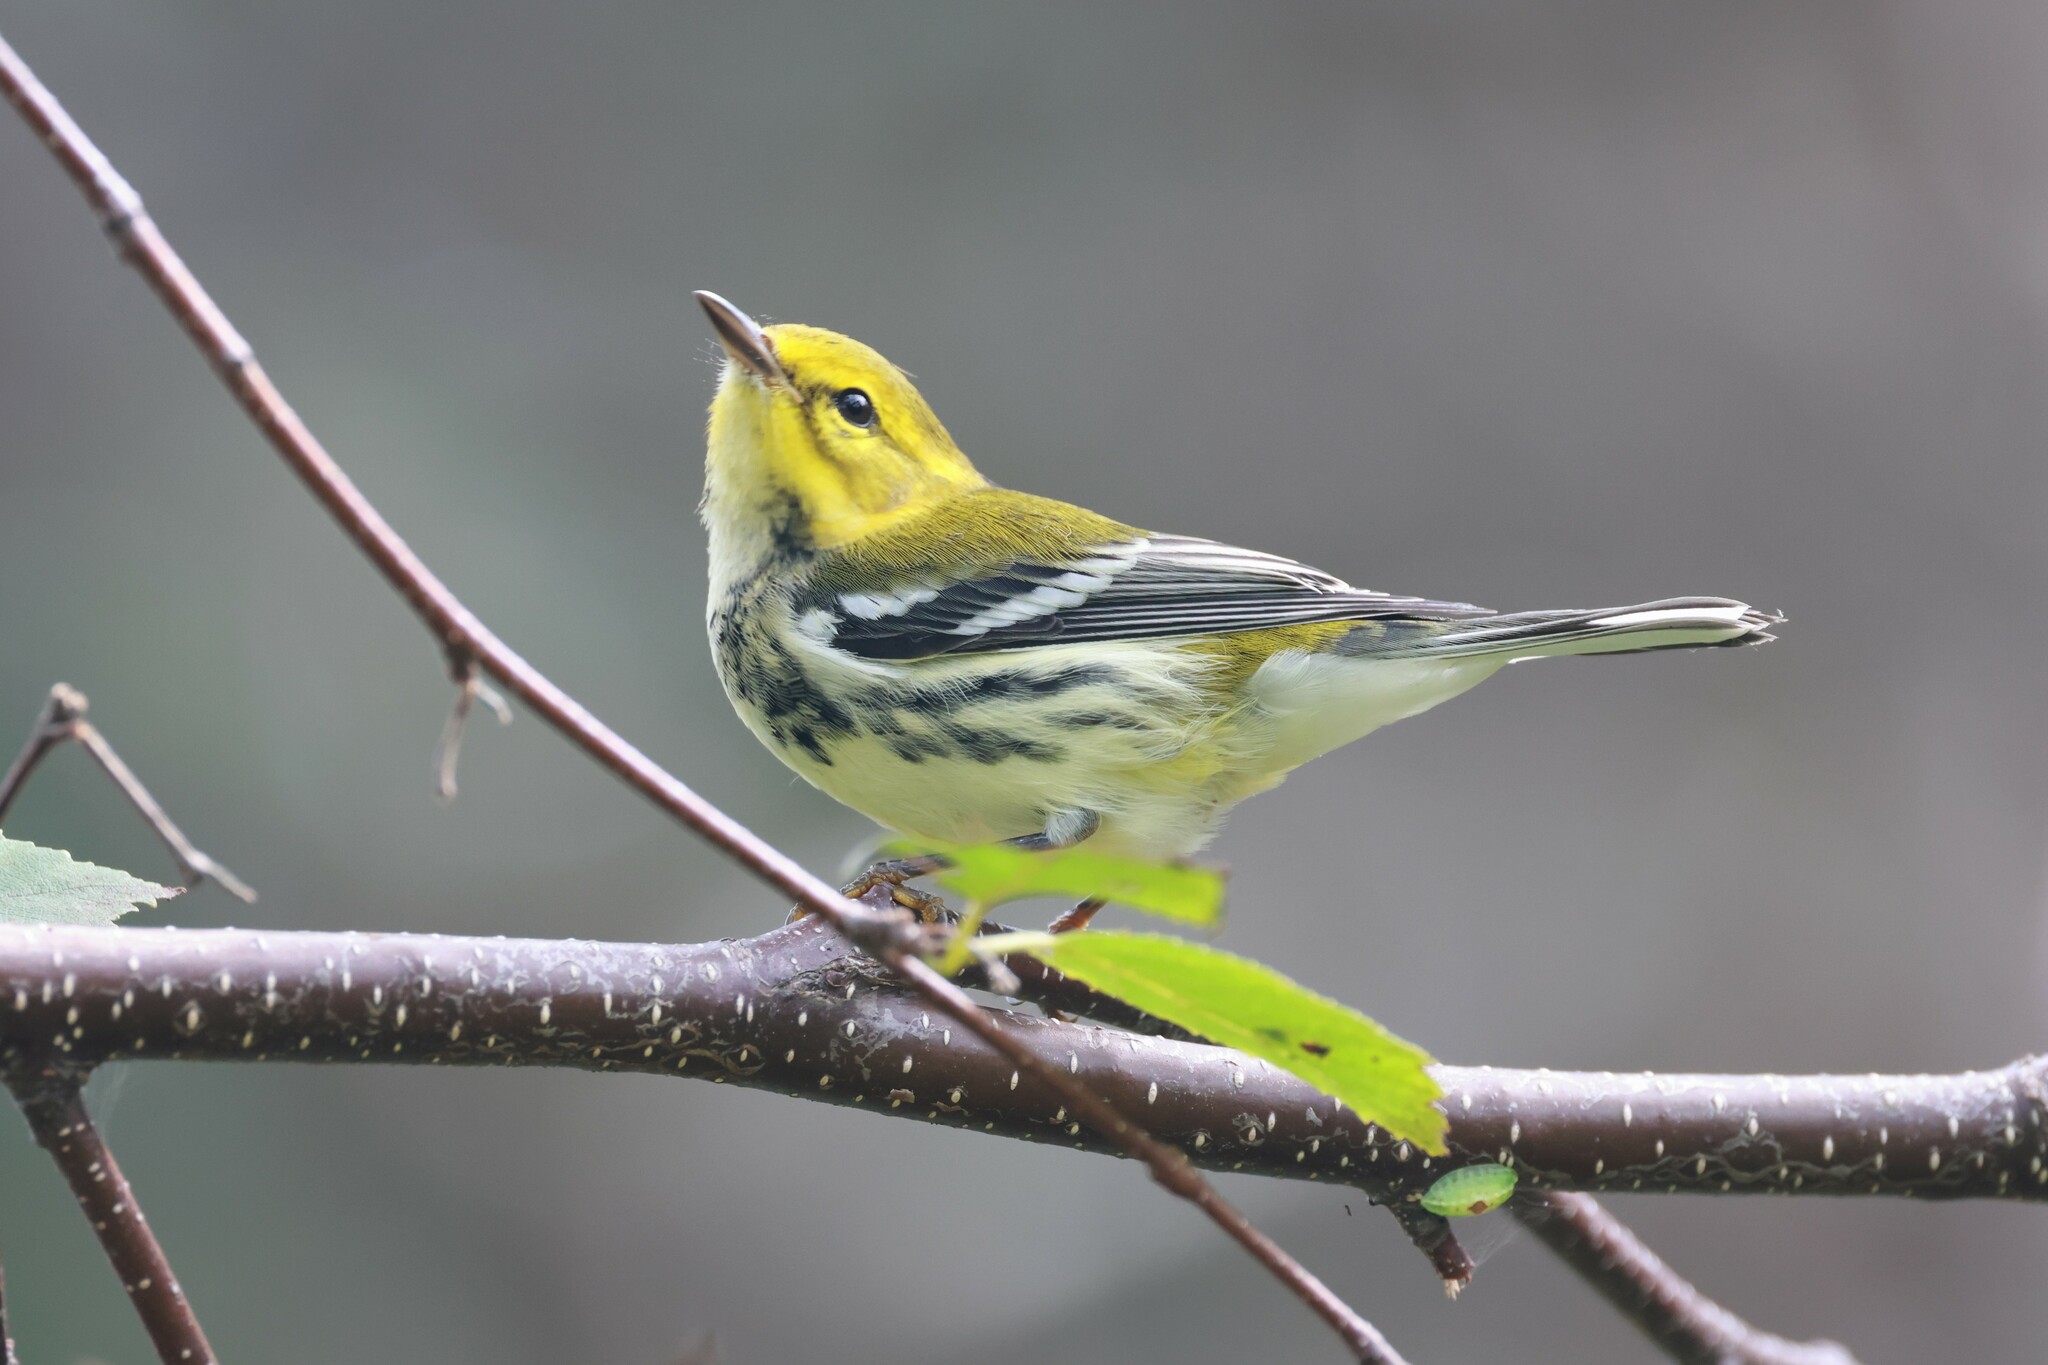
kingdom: Animalia
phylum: Chordata
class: Aves
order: Passeriformes
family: Parulidae
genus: Setophaga
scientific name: Setophaga virens
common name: Black-throated green warbler
